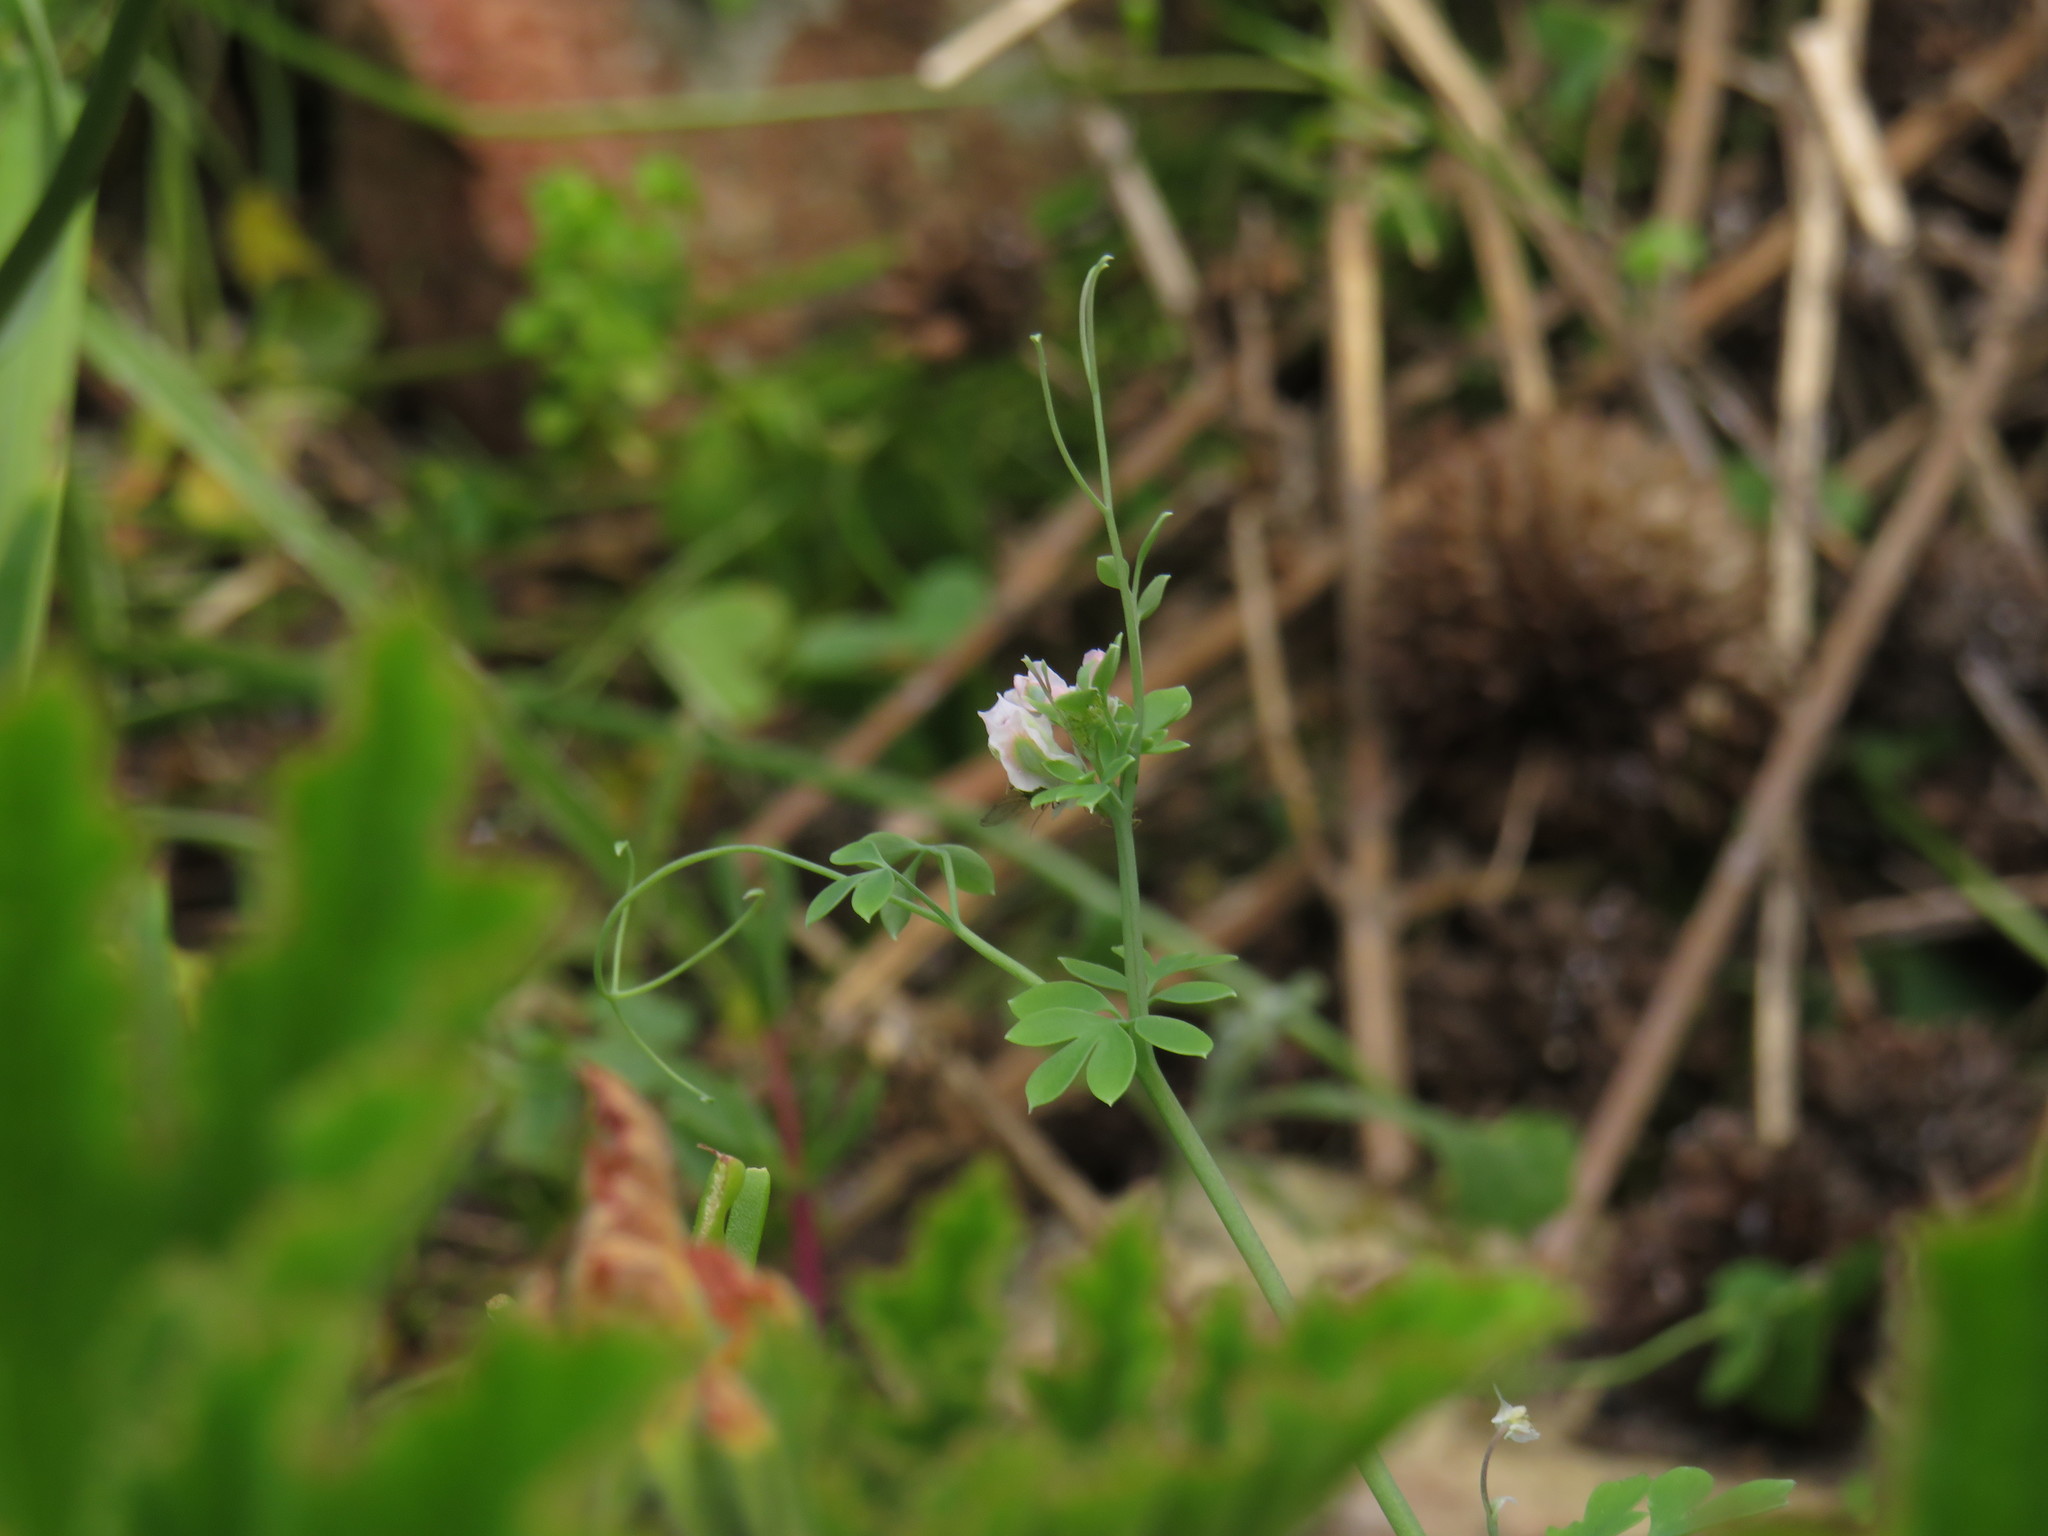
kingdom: Plantae
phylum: Tracheophyta
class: Magnoliopsida
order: Ranunculales
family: Papaveraceae
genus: Cysticapnos
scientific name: Cysticapnos vesicaria
